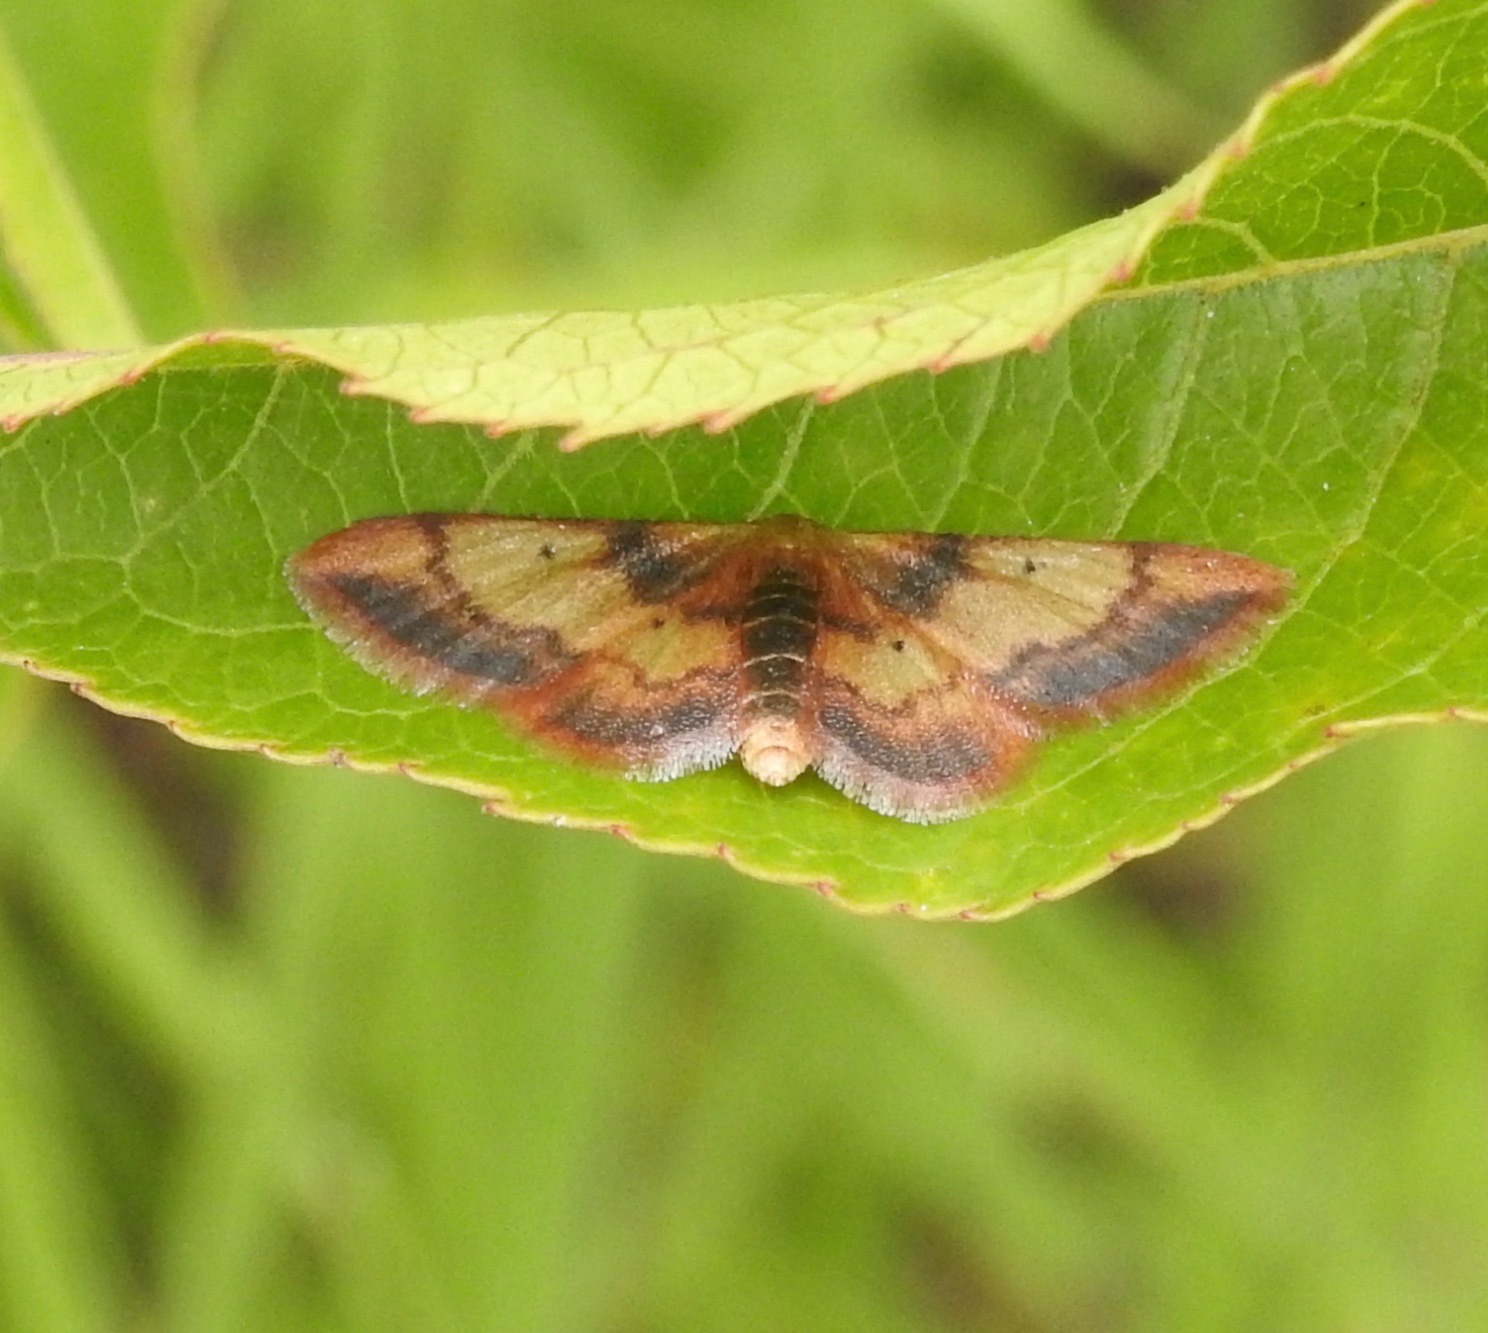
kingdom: Animalia
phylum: Arthropoda
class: Insecta
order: Lepidoptera
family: Geometridae
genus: Idaea
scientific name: Idaea demissaria
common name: Red-bordered wave
